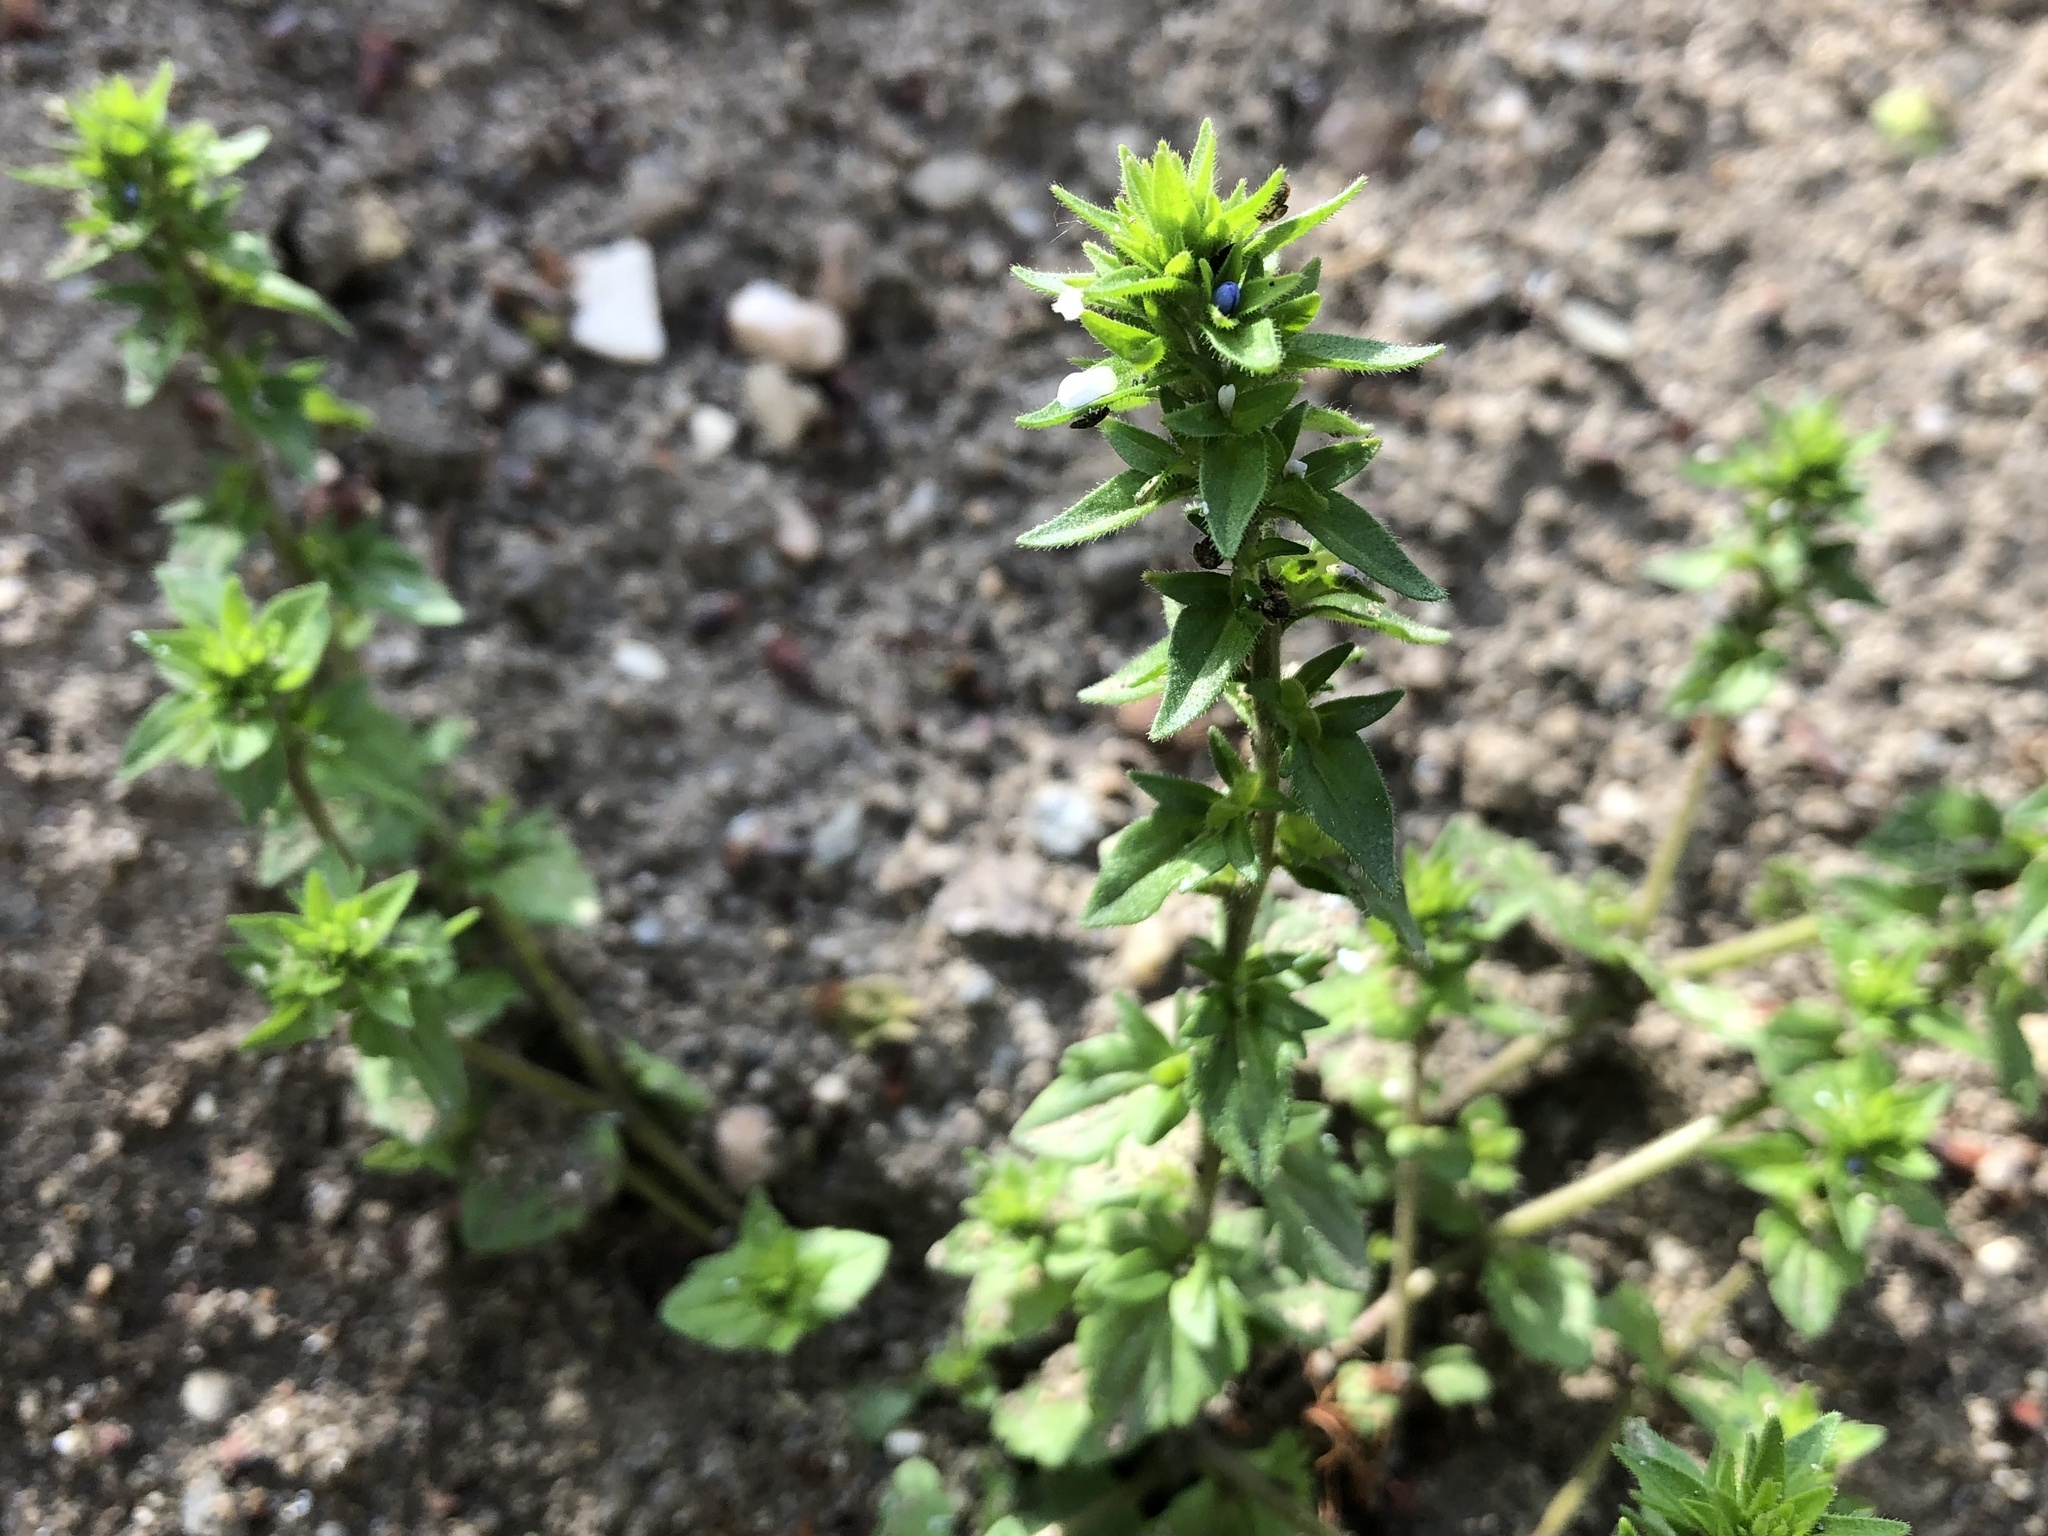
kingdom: Plantae
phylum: Tracheophyta
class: Magnoliopsida
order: Lamiales
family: Plantaginaceae
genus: Veronica
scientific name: Veronica arvensis
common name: Corn speedwell
